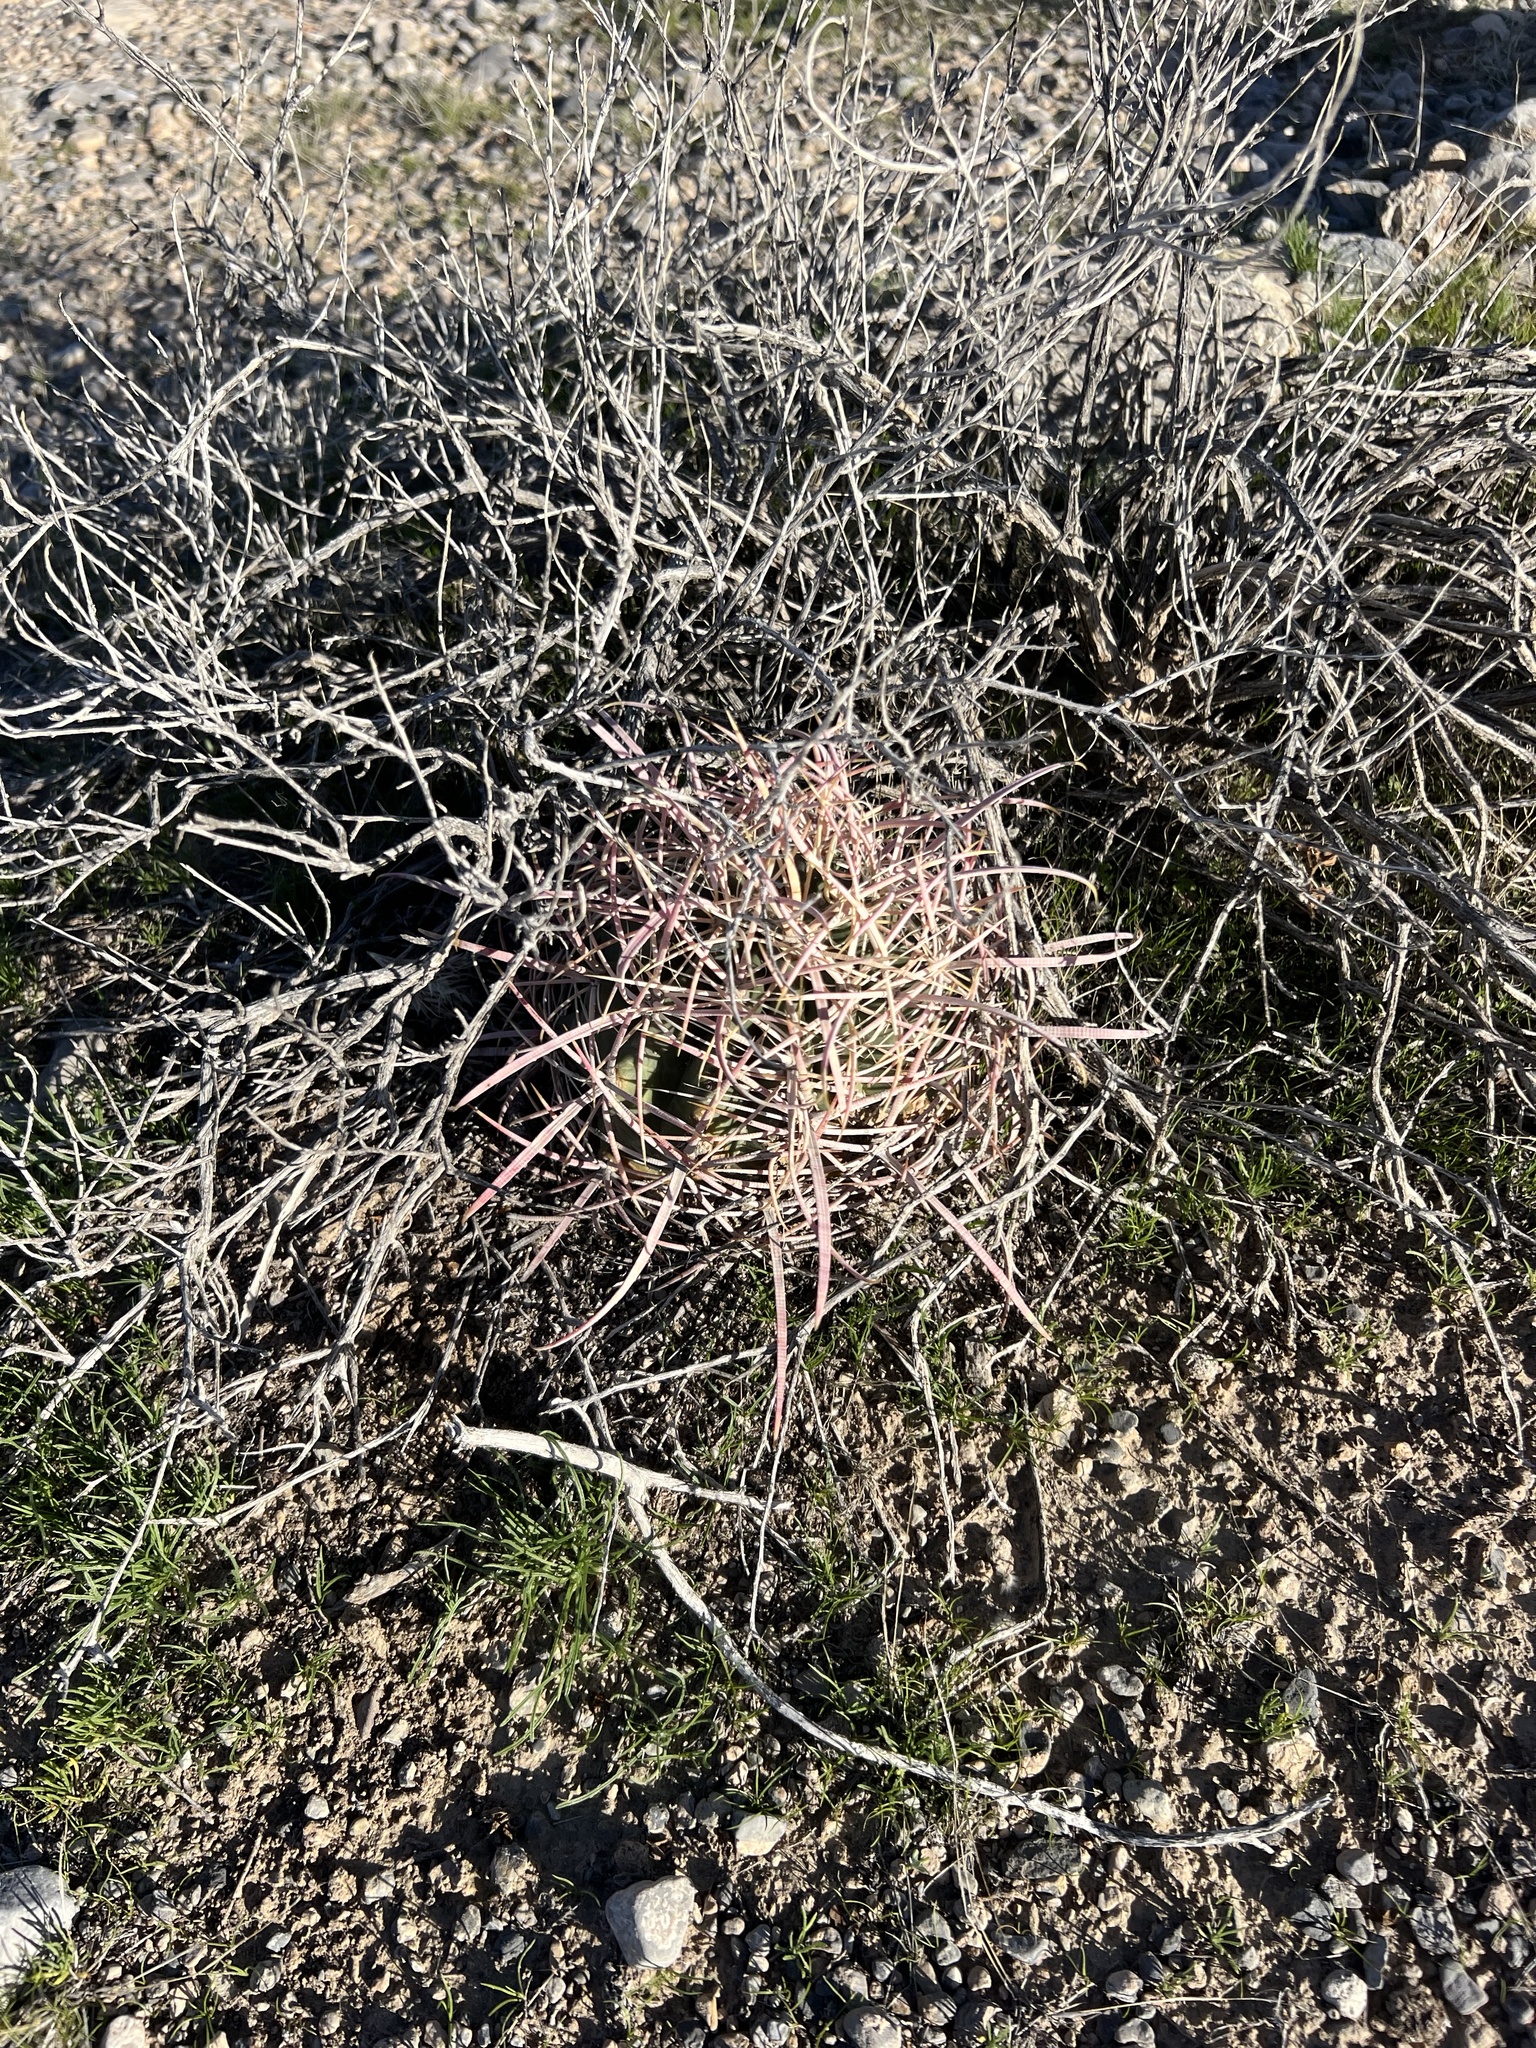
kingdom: Plantae
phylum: Tracheophyta
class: Magnoliopsida
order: Caryophyllales
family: Cactaceae
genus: Ferocactus
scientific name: Ferocactus cylindraceus
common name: California barrel cactus
